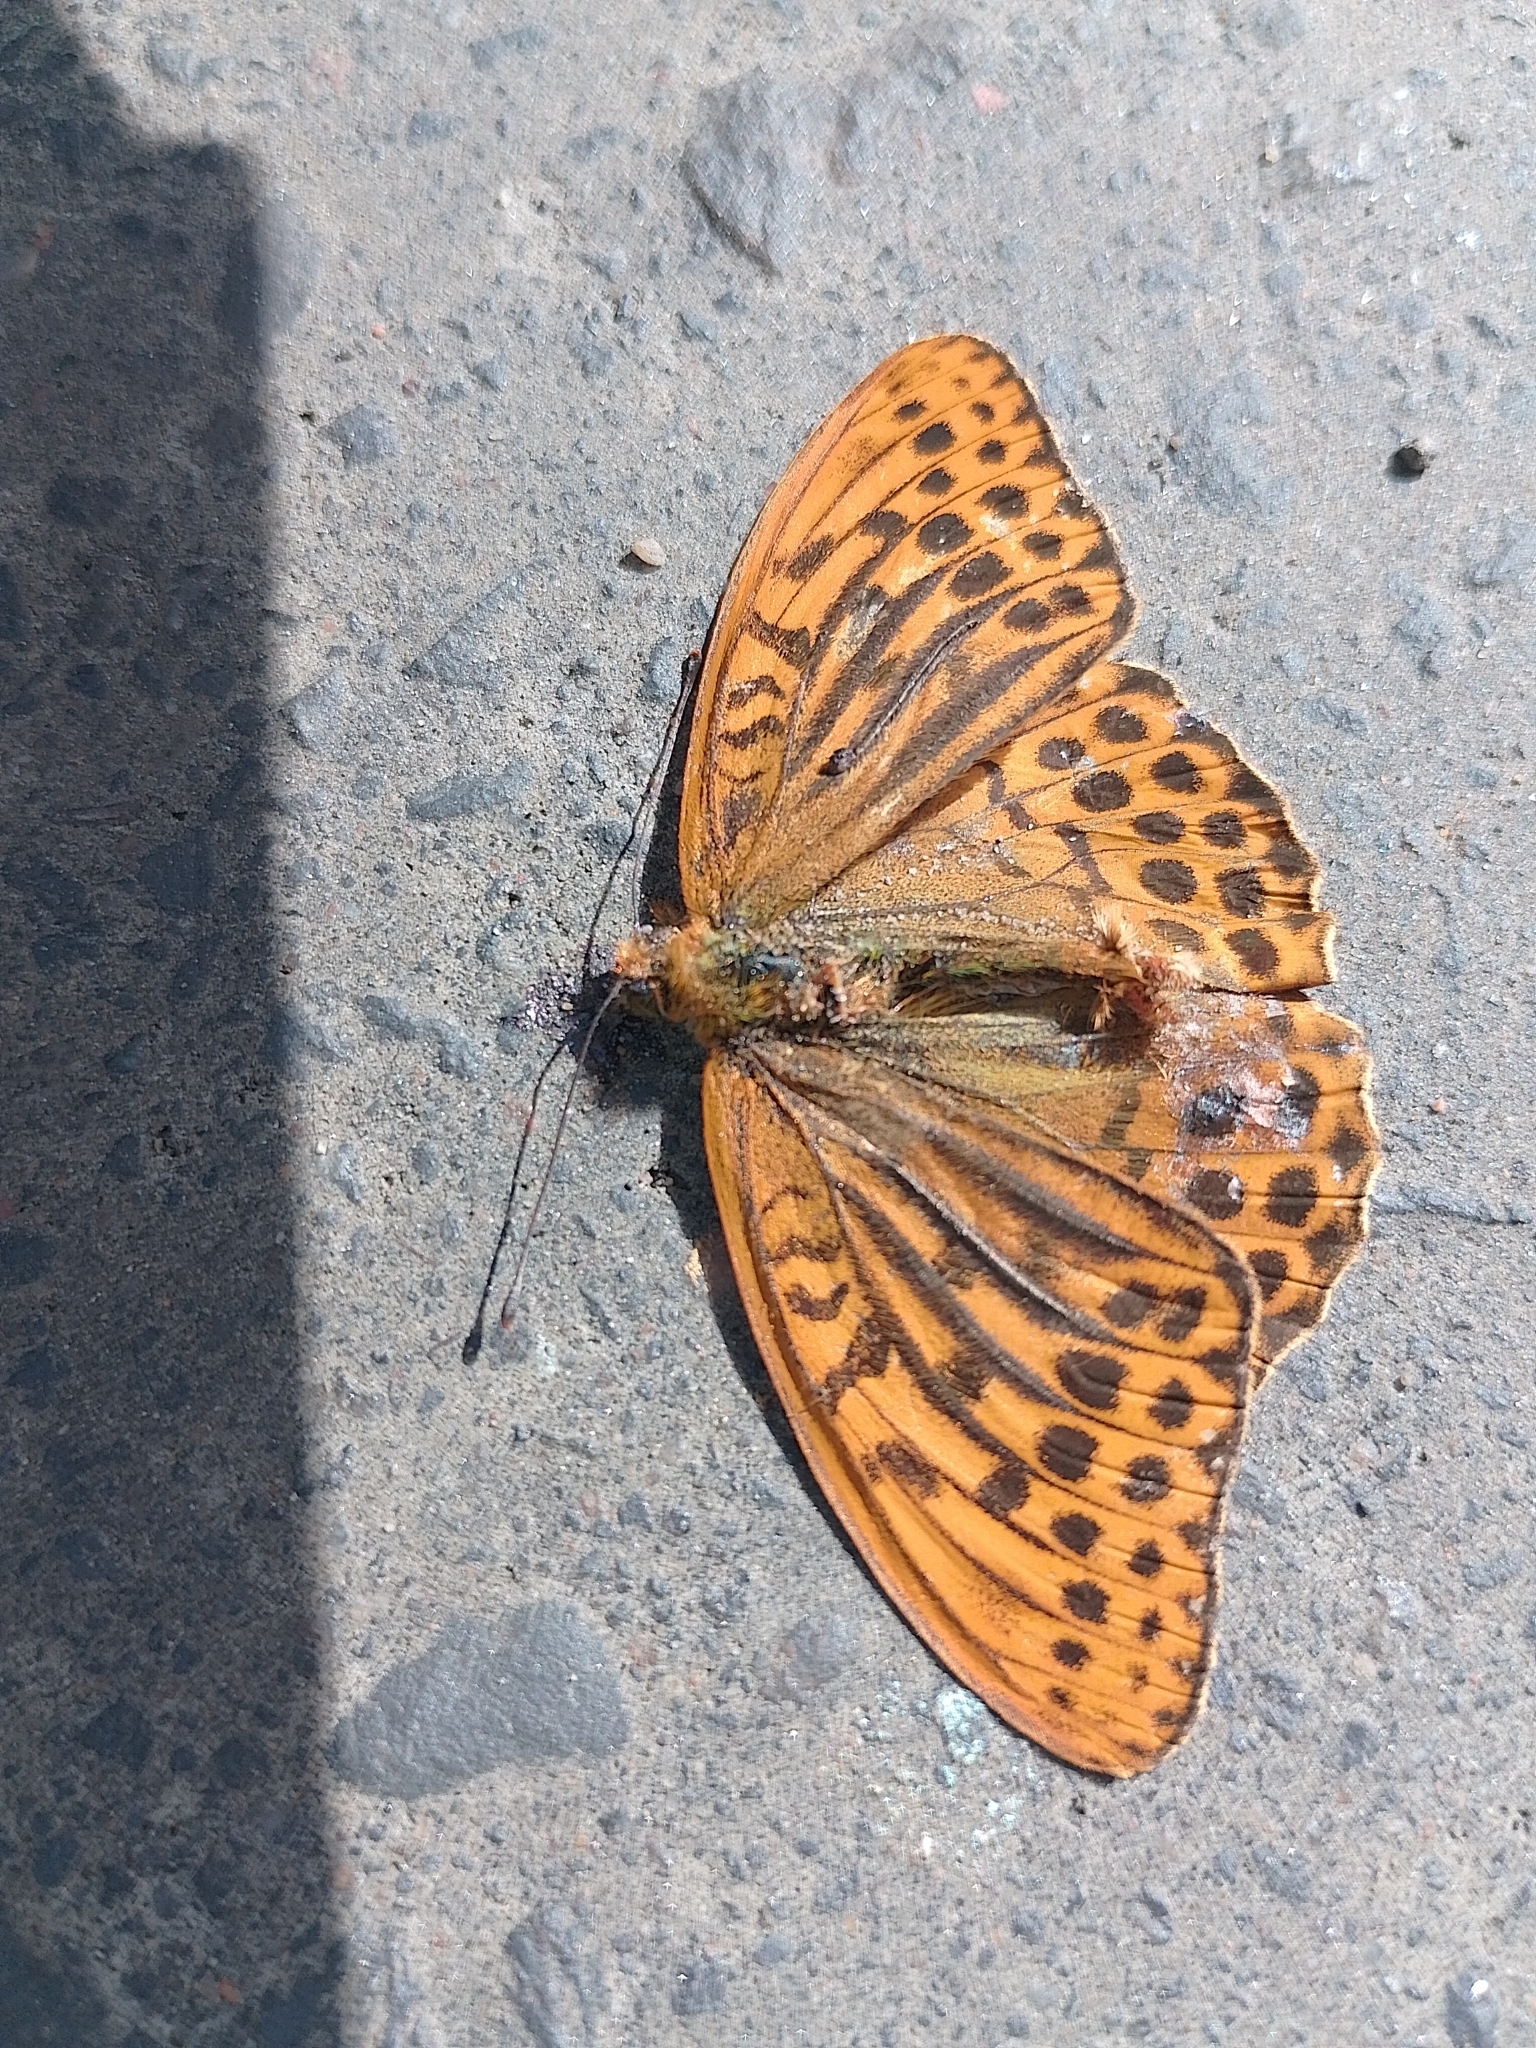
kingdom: Animalia
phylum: Arthropoda
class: Insecta
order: Lepidoptera
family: Nymphalidae
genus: Argynnis
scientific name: Argynnis paphia
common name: Silver-washed fritillary
